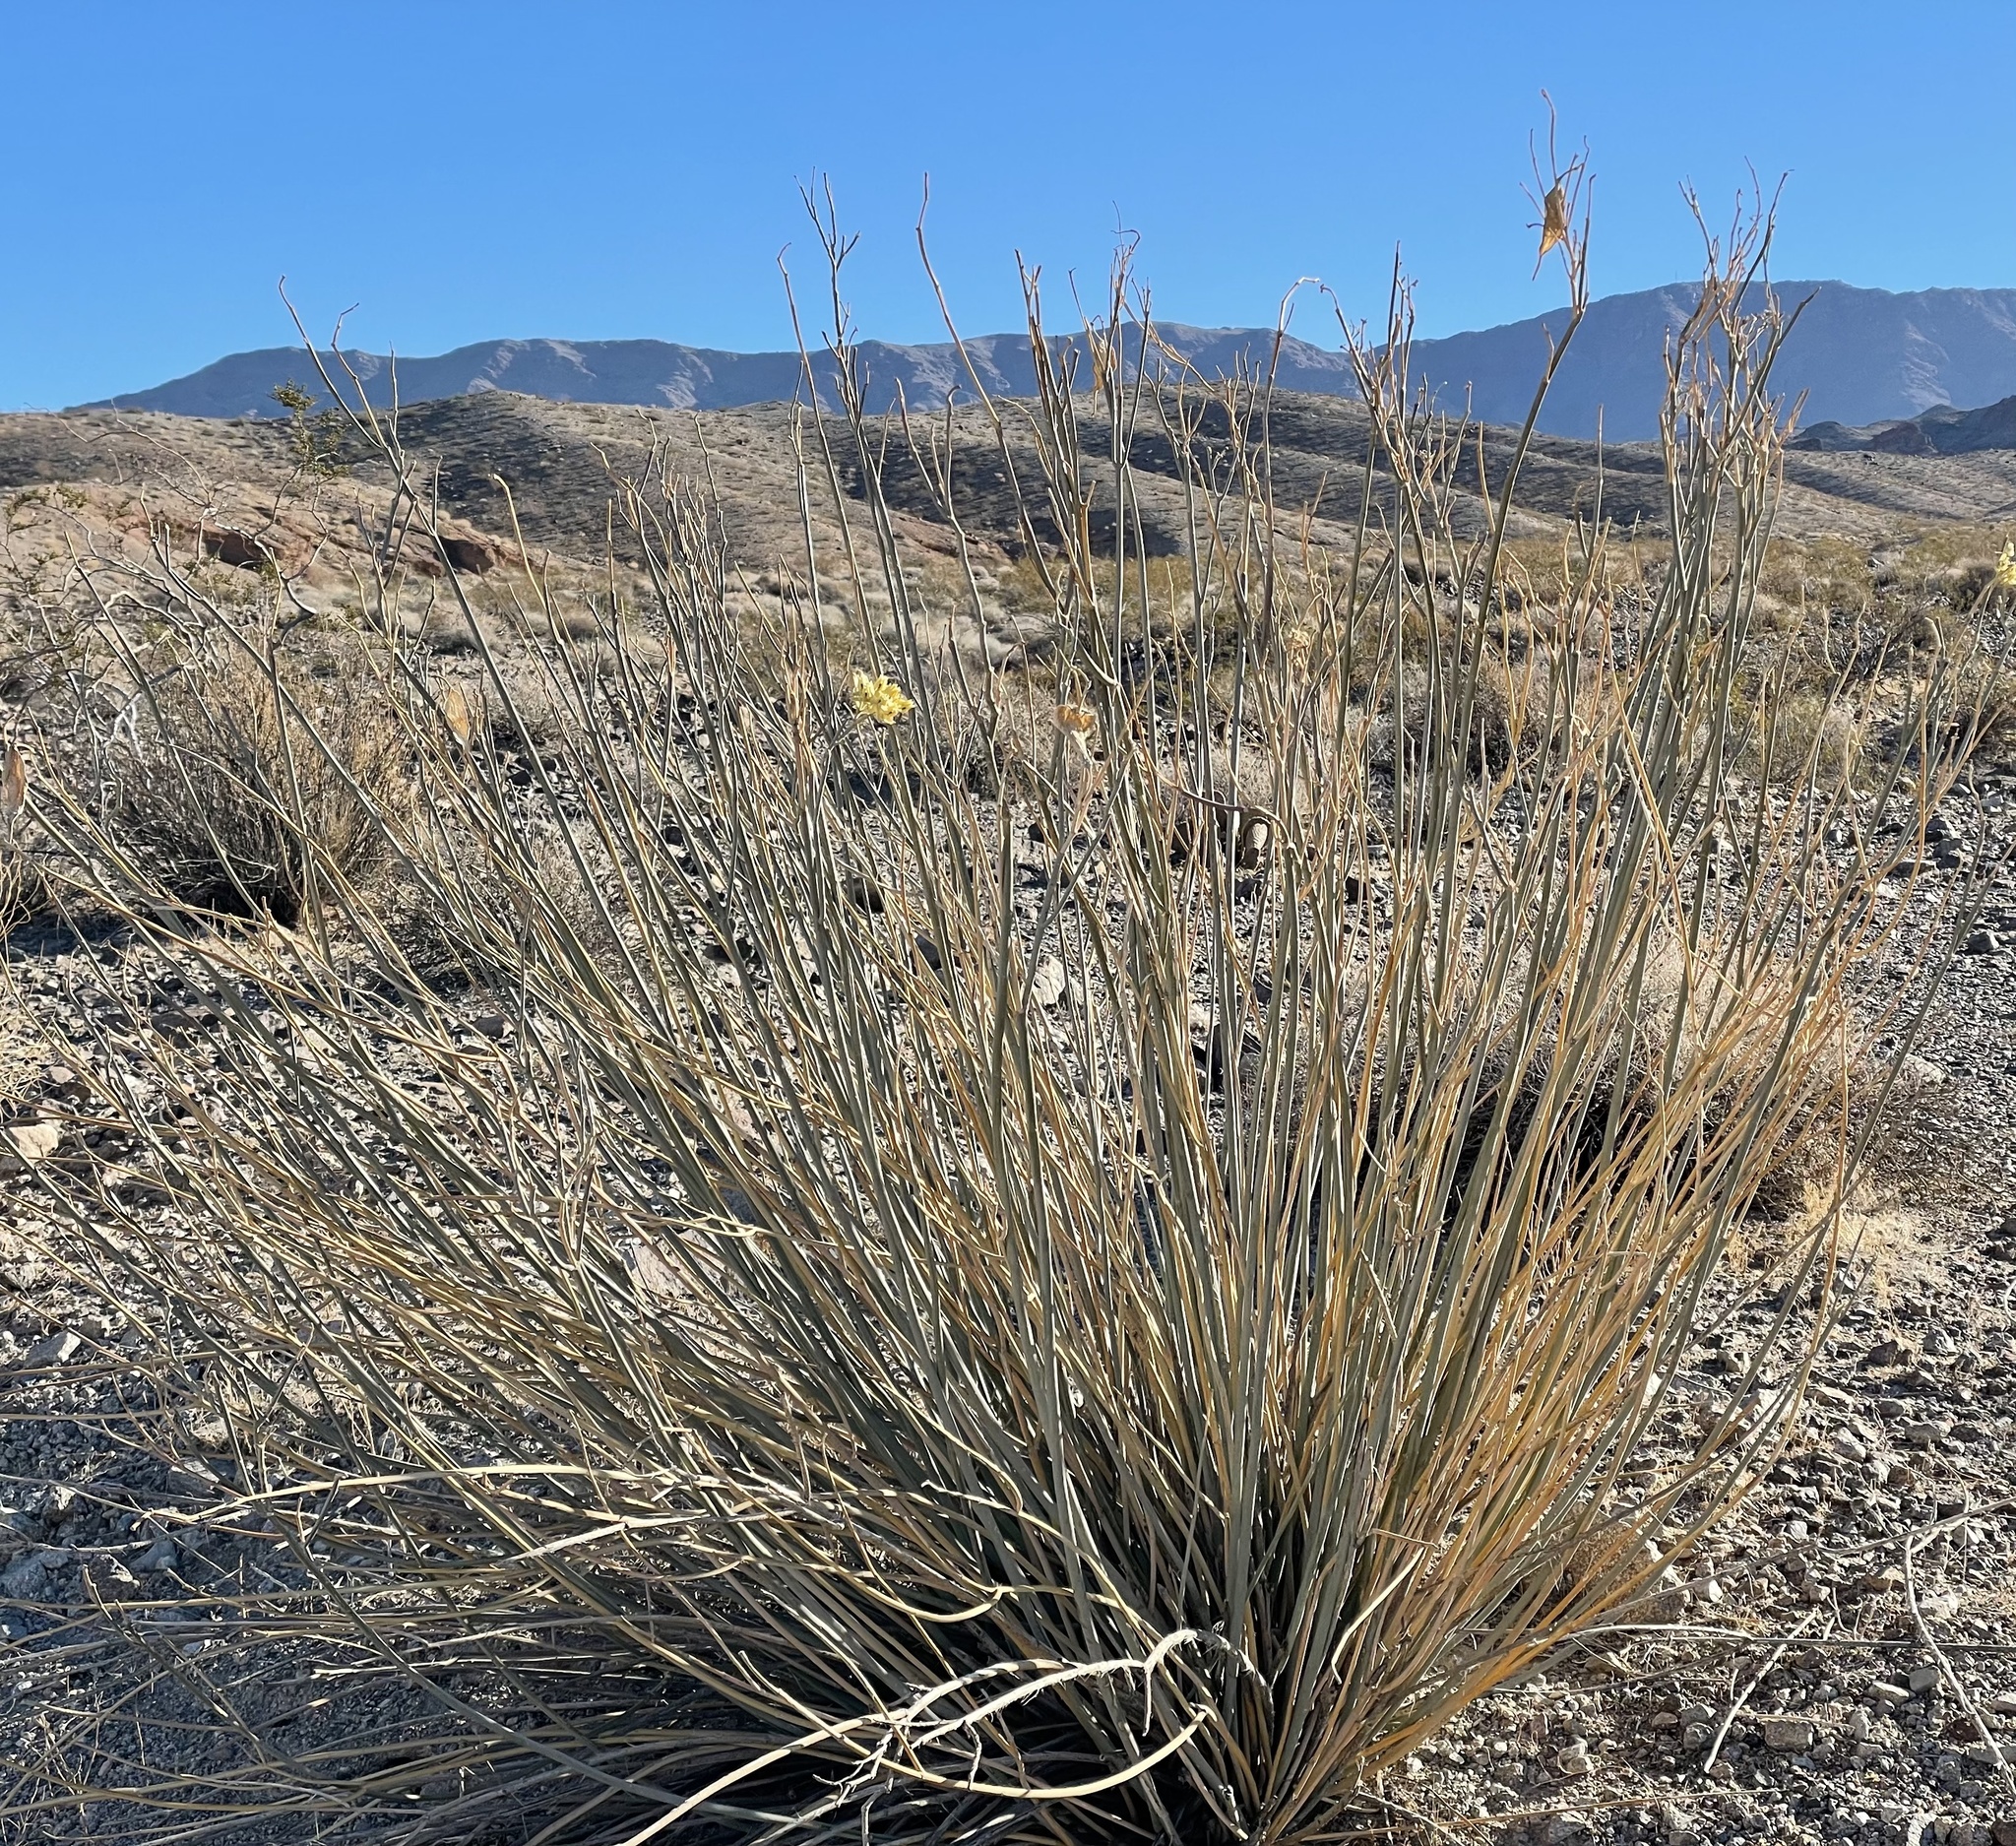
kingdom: Plantae
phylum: Tracheophyta
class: Magnoliopsida
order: Gentianales
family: Apocynaceae
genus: Asclepias
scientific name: Asclepias subulata
